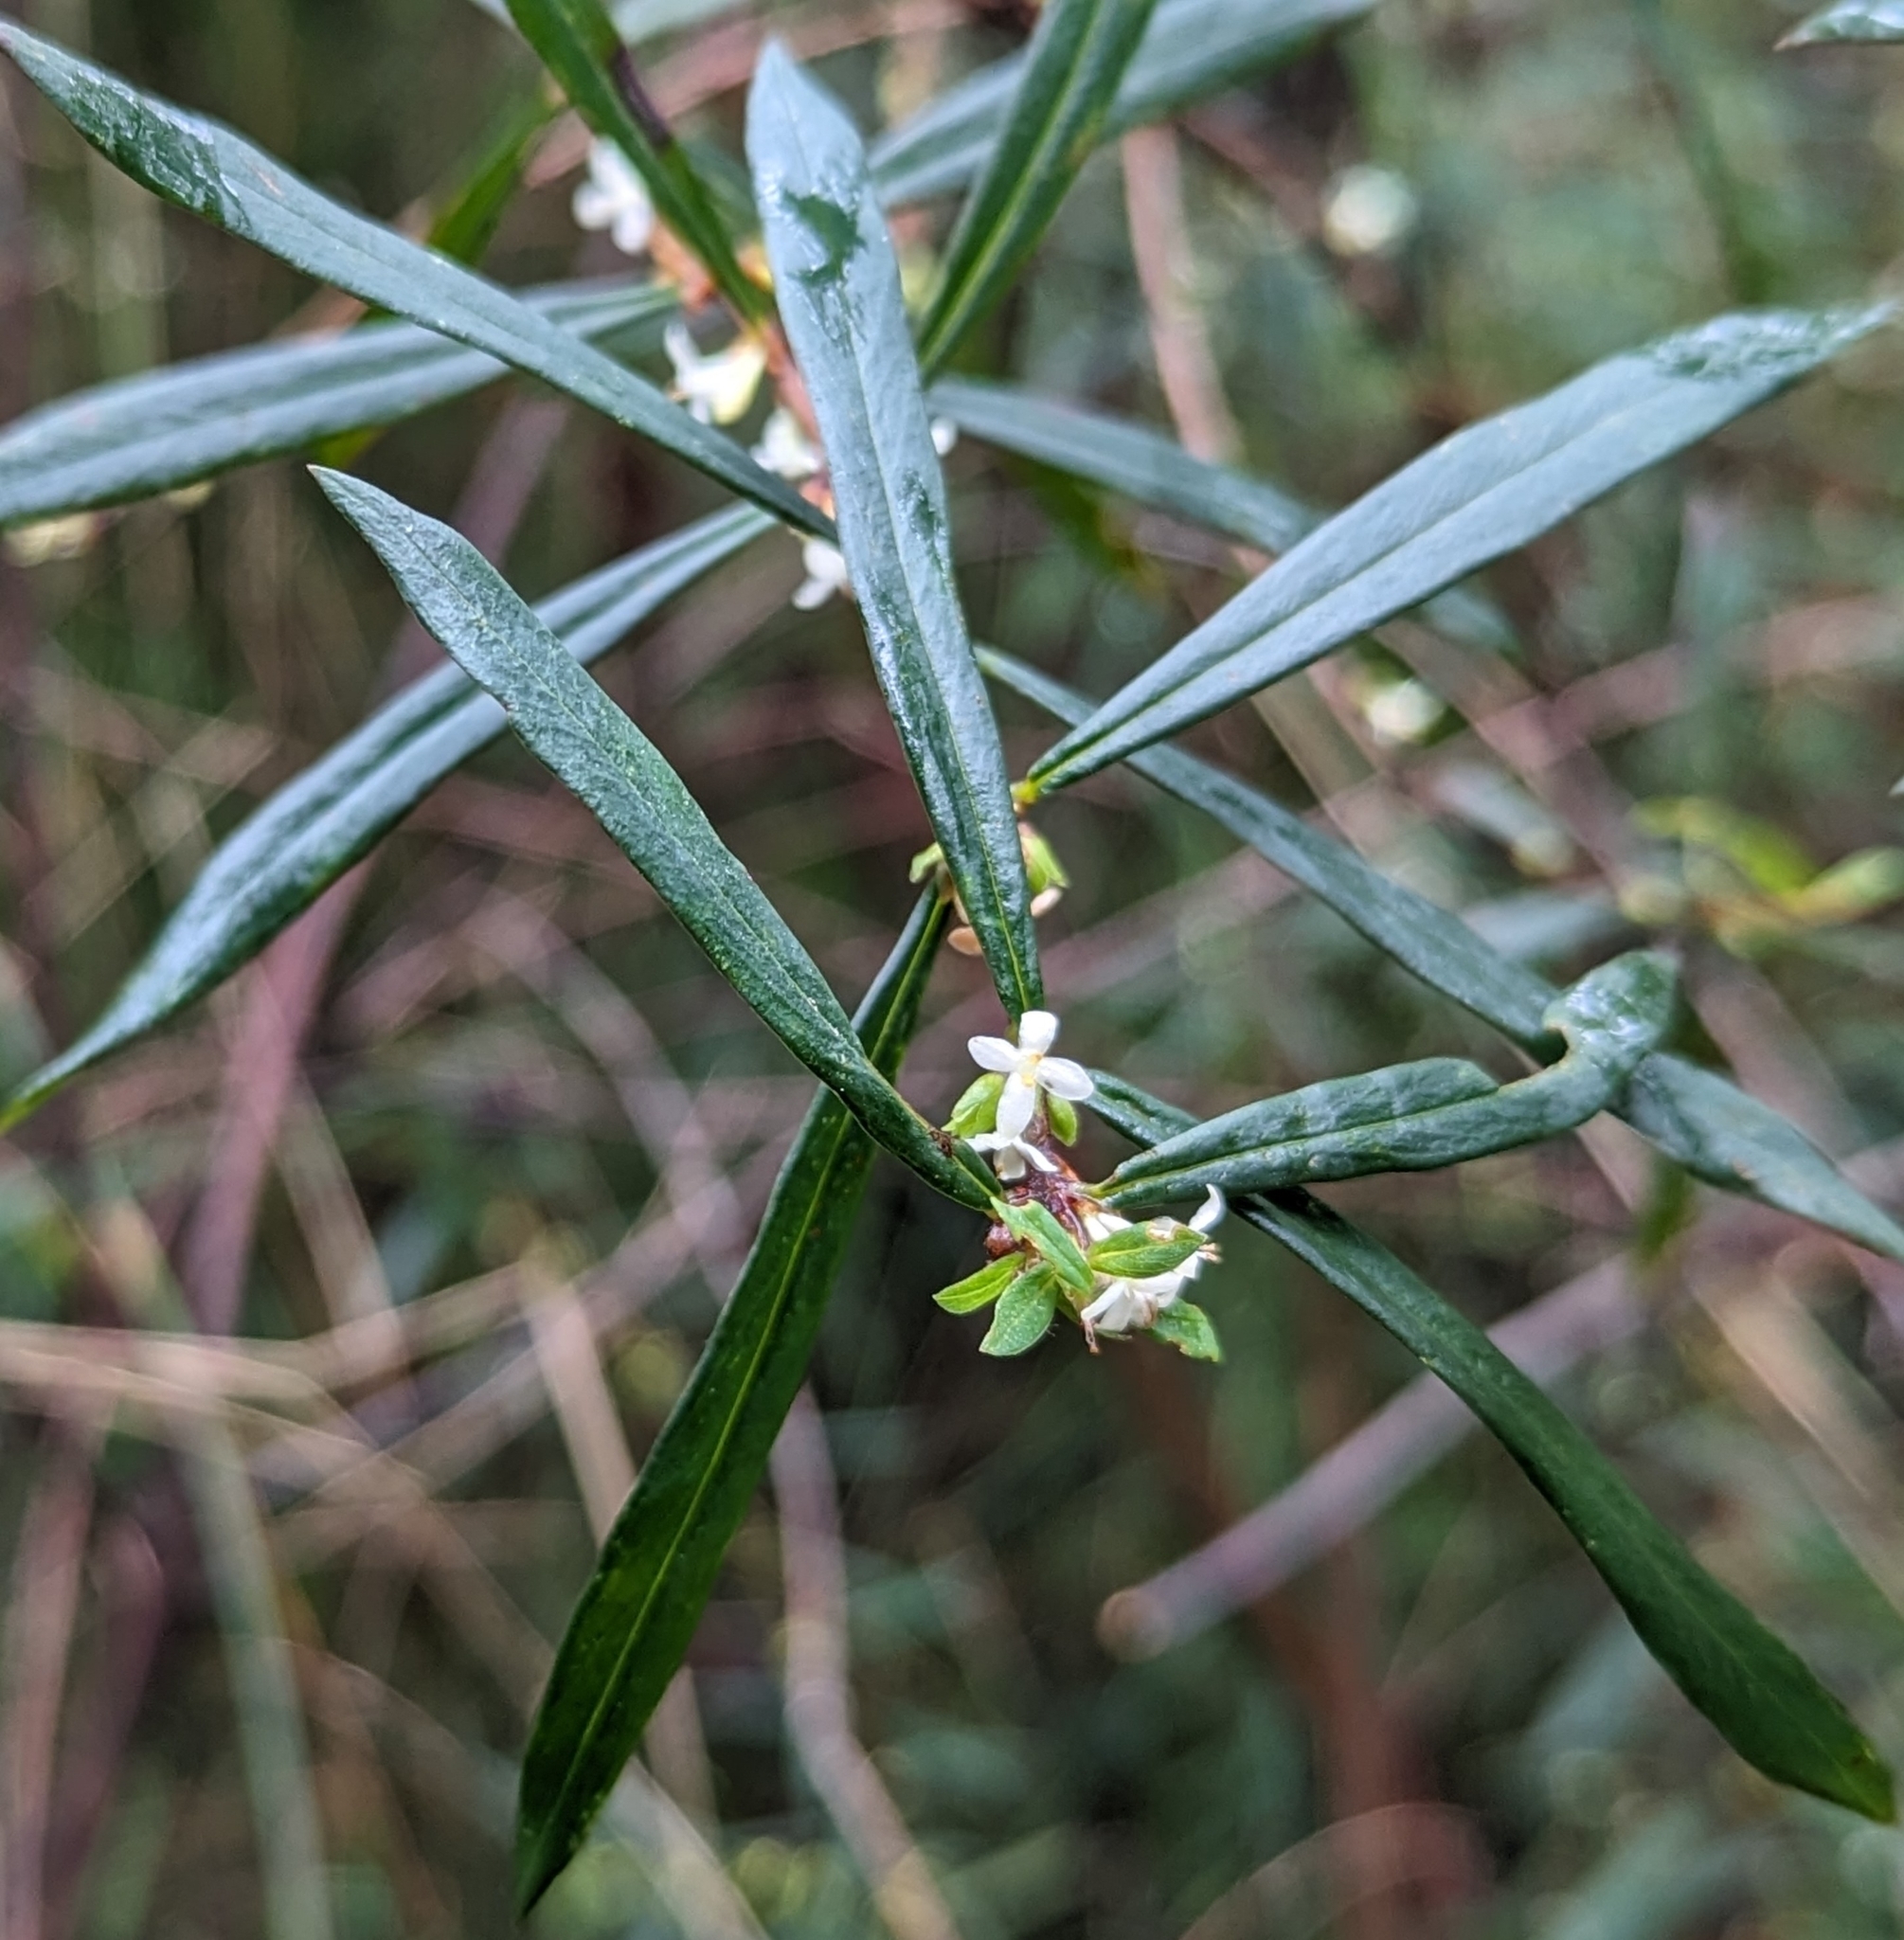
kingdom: Plantae
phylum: Tracheophyta
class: Magnoliopsida
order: Malvales
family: Thymelaeaceae
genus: Pimelea
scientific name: Pimelea axiflora
